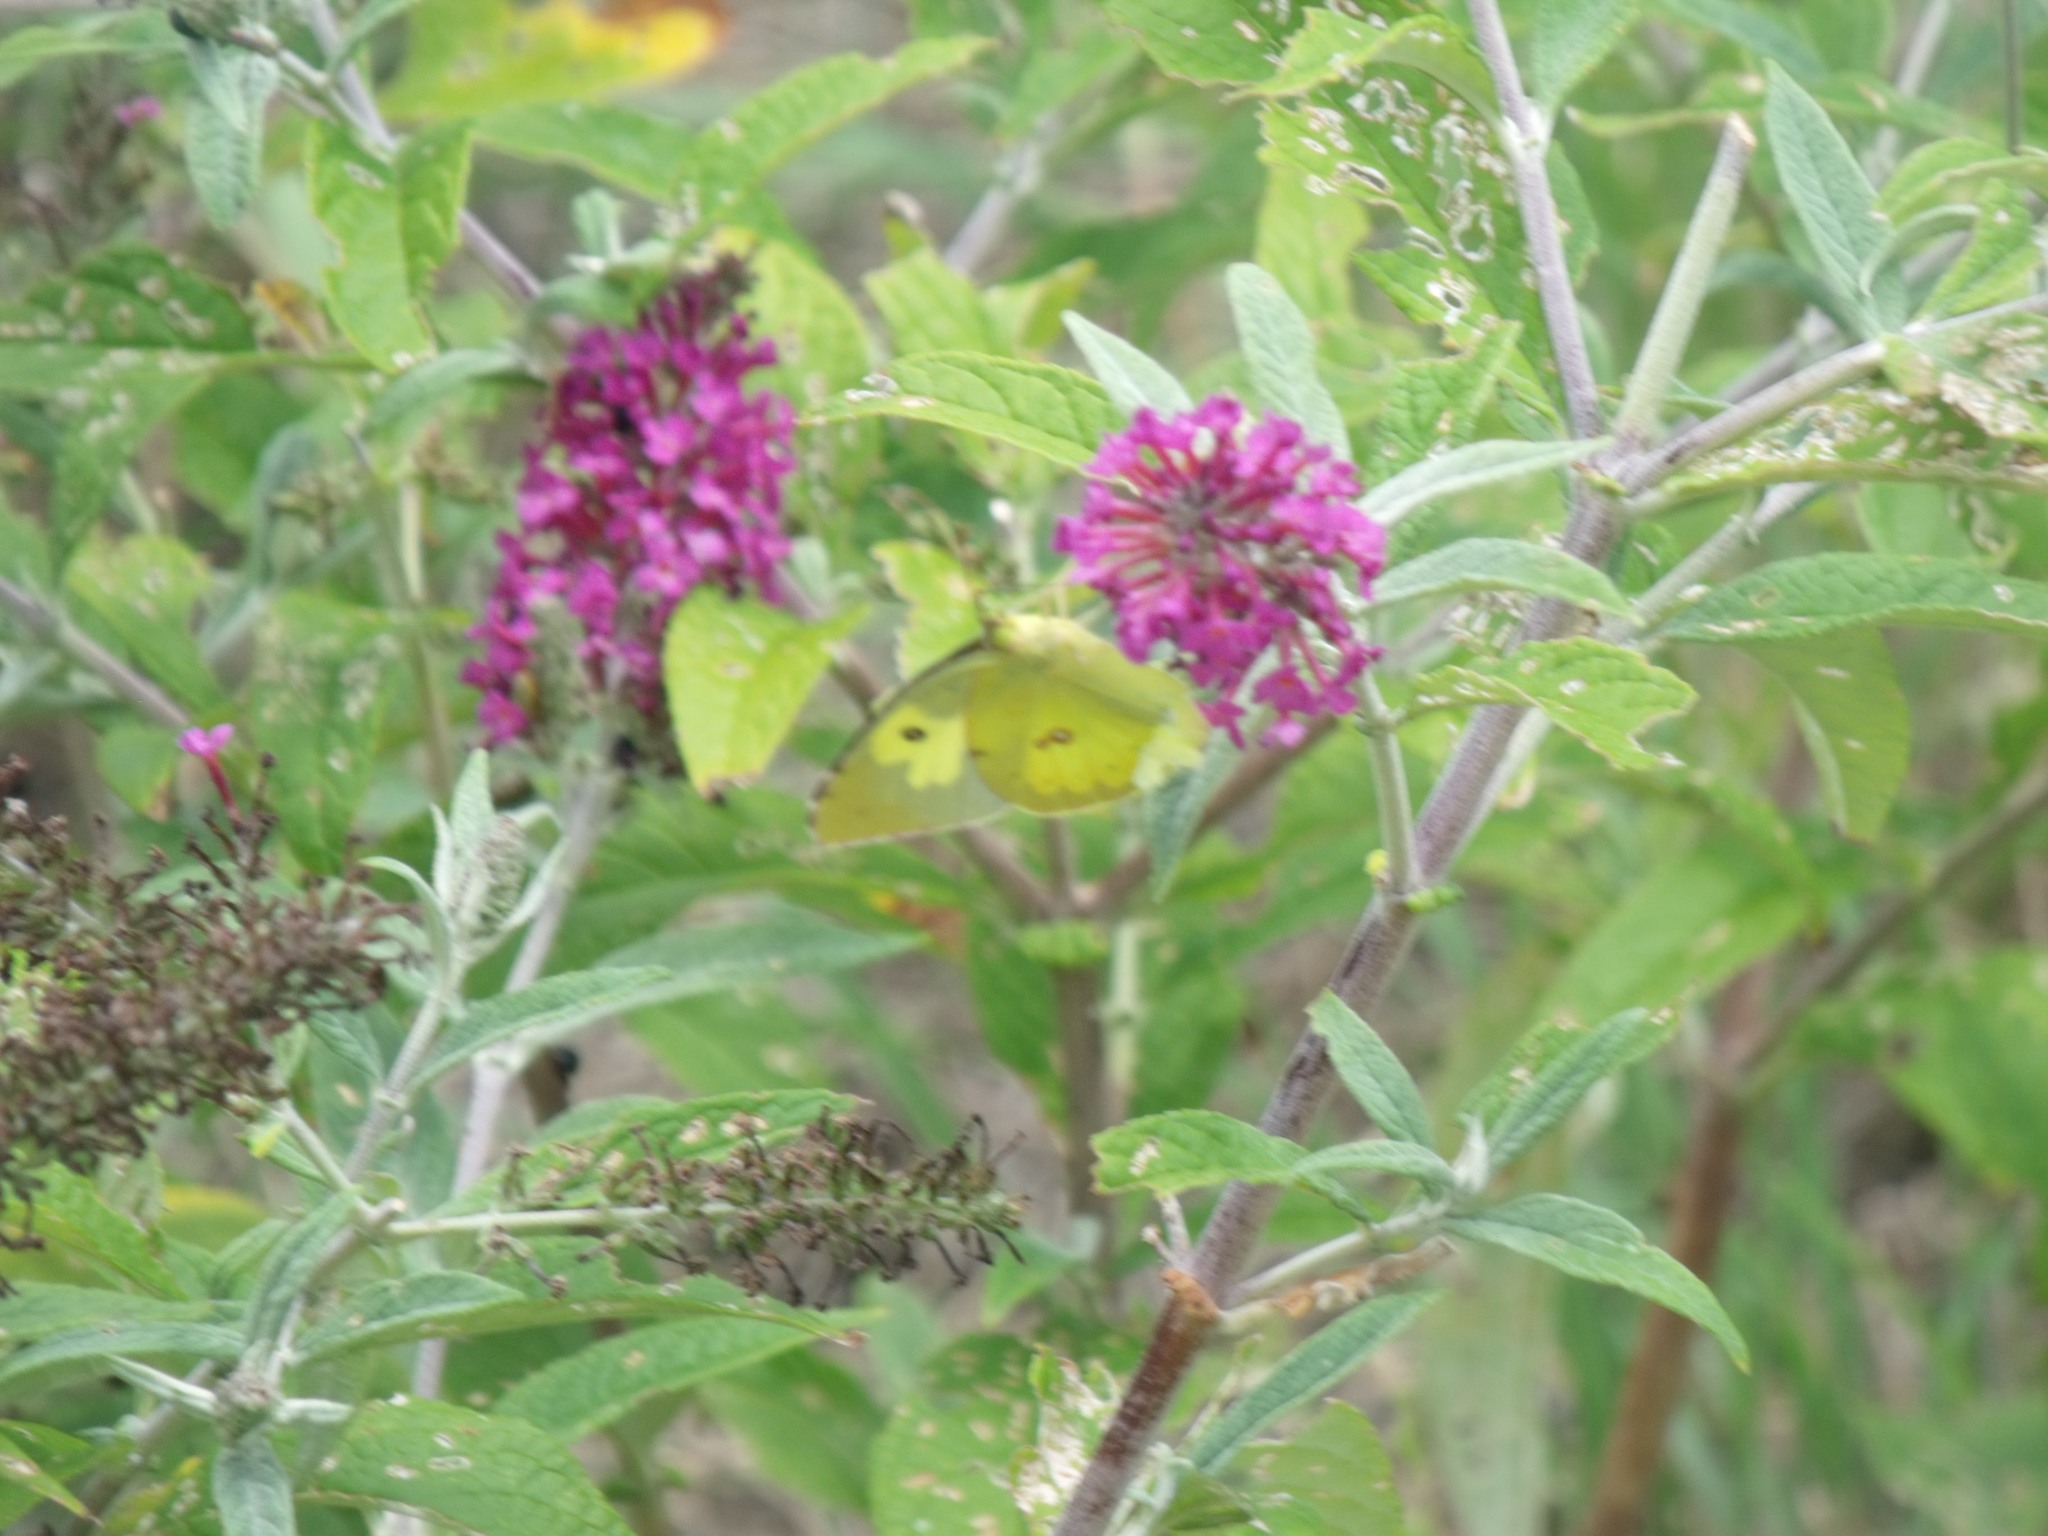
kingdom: Animalia
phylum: Arthropoda
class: Insecta
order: Lepidoptera
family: Pieridae
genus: Zerene
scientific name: Zerene cesonia
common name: Southern dogface
